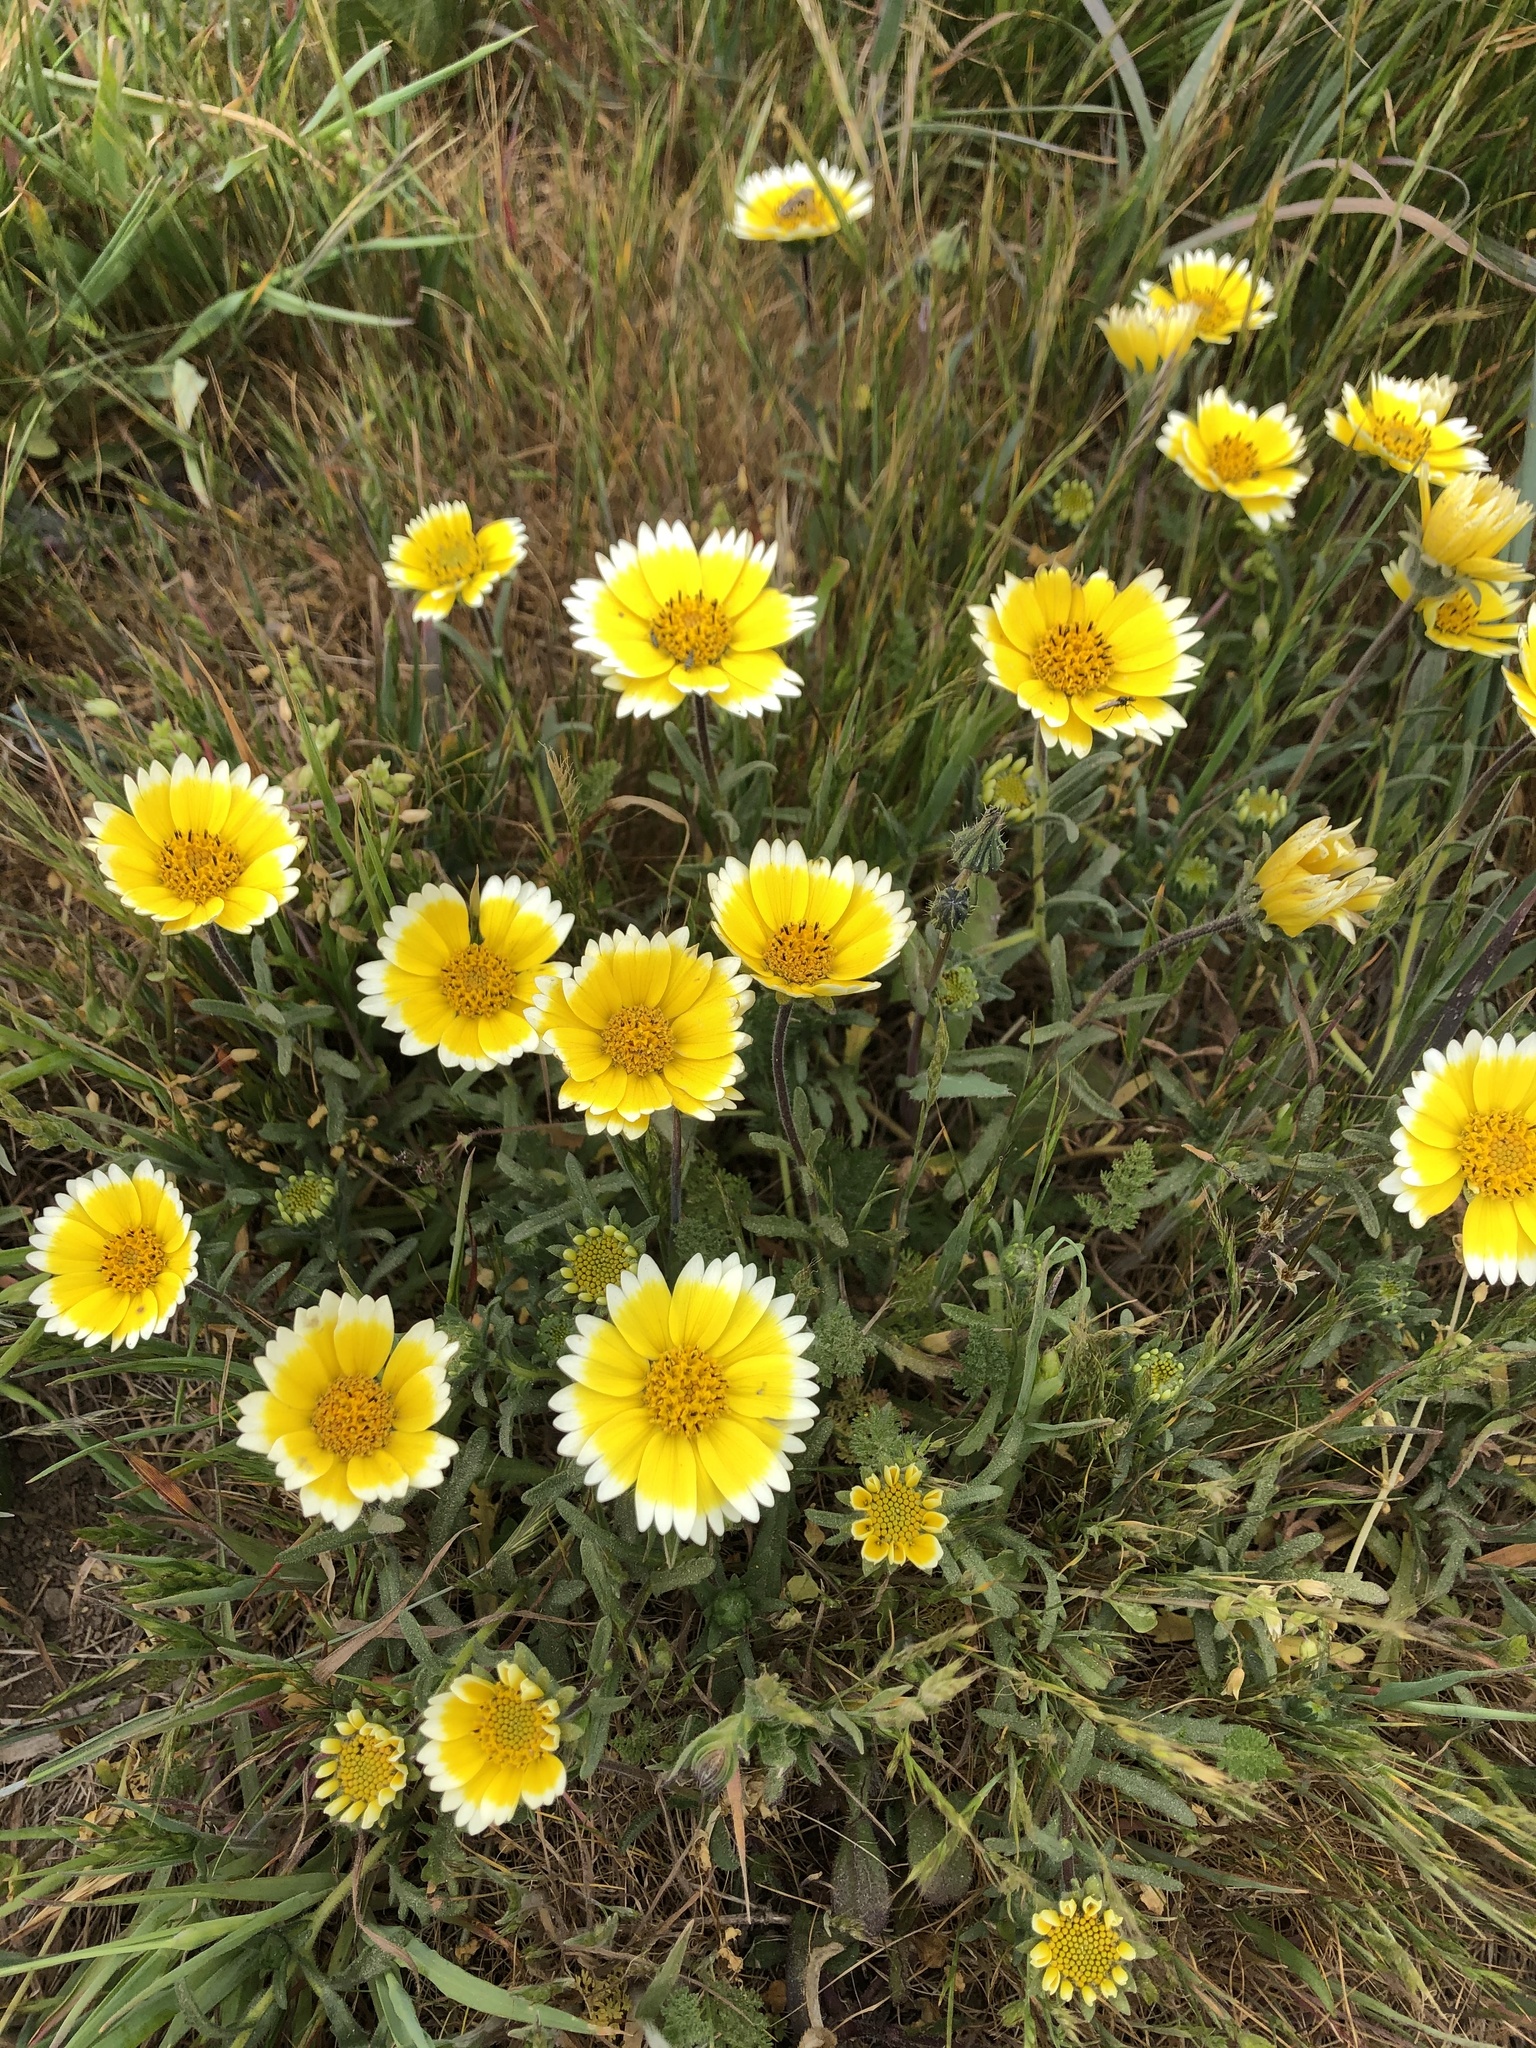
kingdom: Plantae
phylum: Tracheophyta
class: Magnoliopsida
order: Asterales
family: Asteraceae
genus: Layia
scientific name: Layia platyglossa
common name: Tidy-tips
